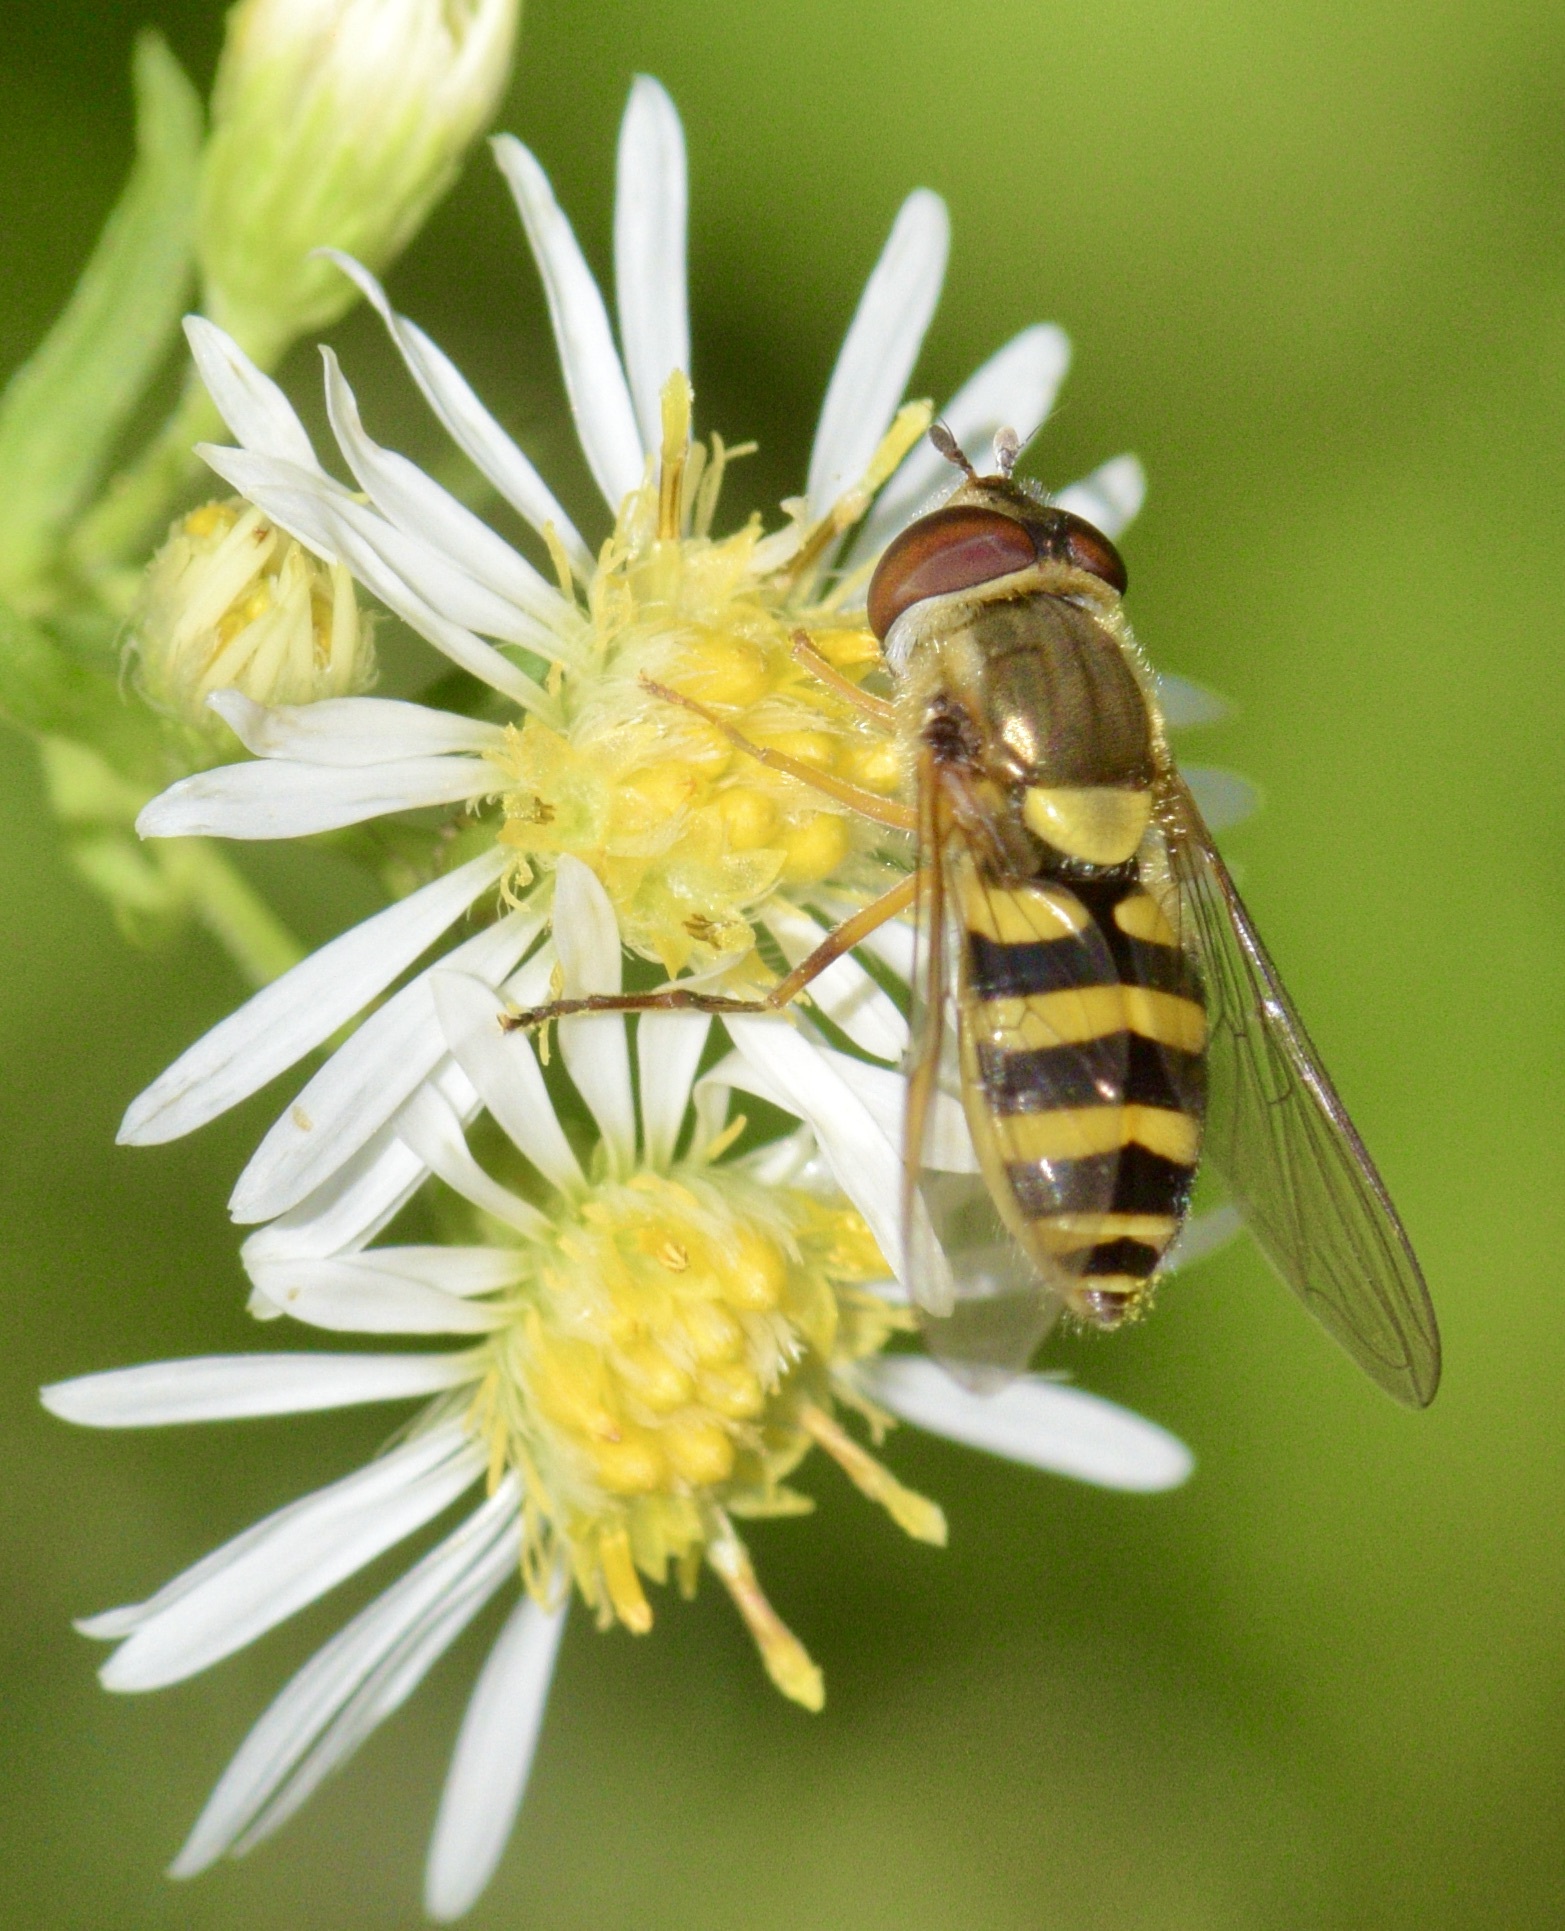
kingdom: Animalia
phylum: Arthropoda
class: Insecta
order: Diptera
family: Syrphidae
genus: Syrphus
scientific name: Syrphus rectus
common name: Yellow-legged flower fly
